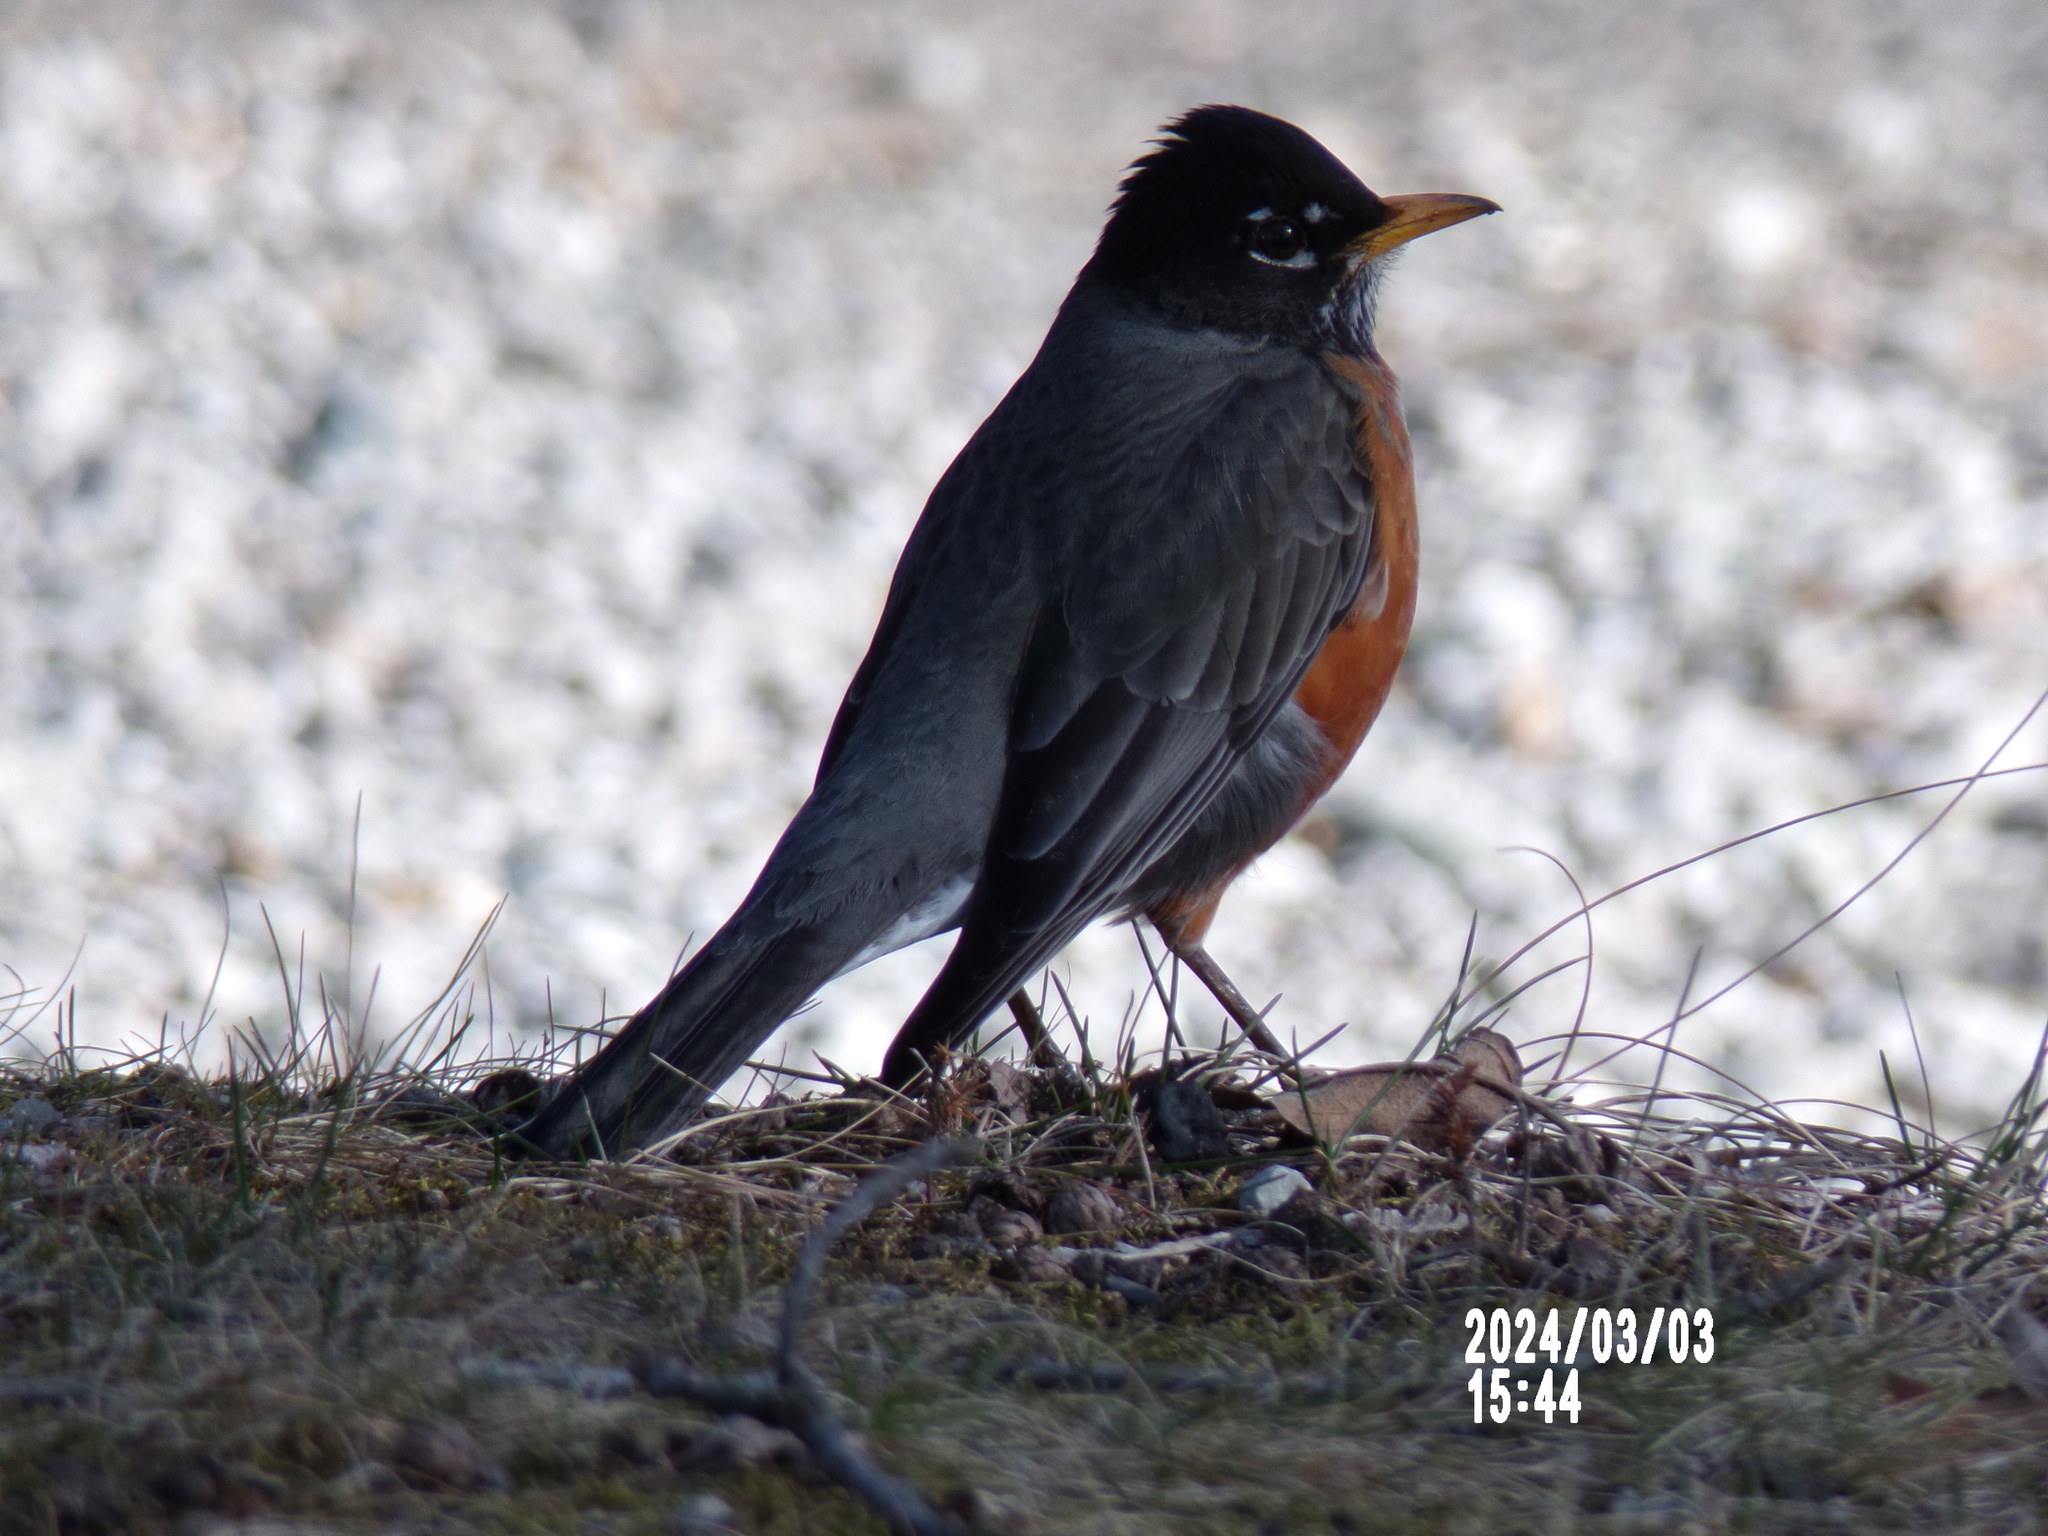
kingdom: Animalia
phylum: Chordata
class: Aves
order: Passeriformes
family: Turdidae
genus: Turdus
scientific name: Turdus migratorius
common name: American robin
